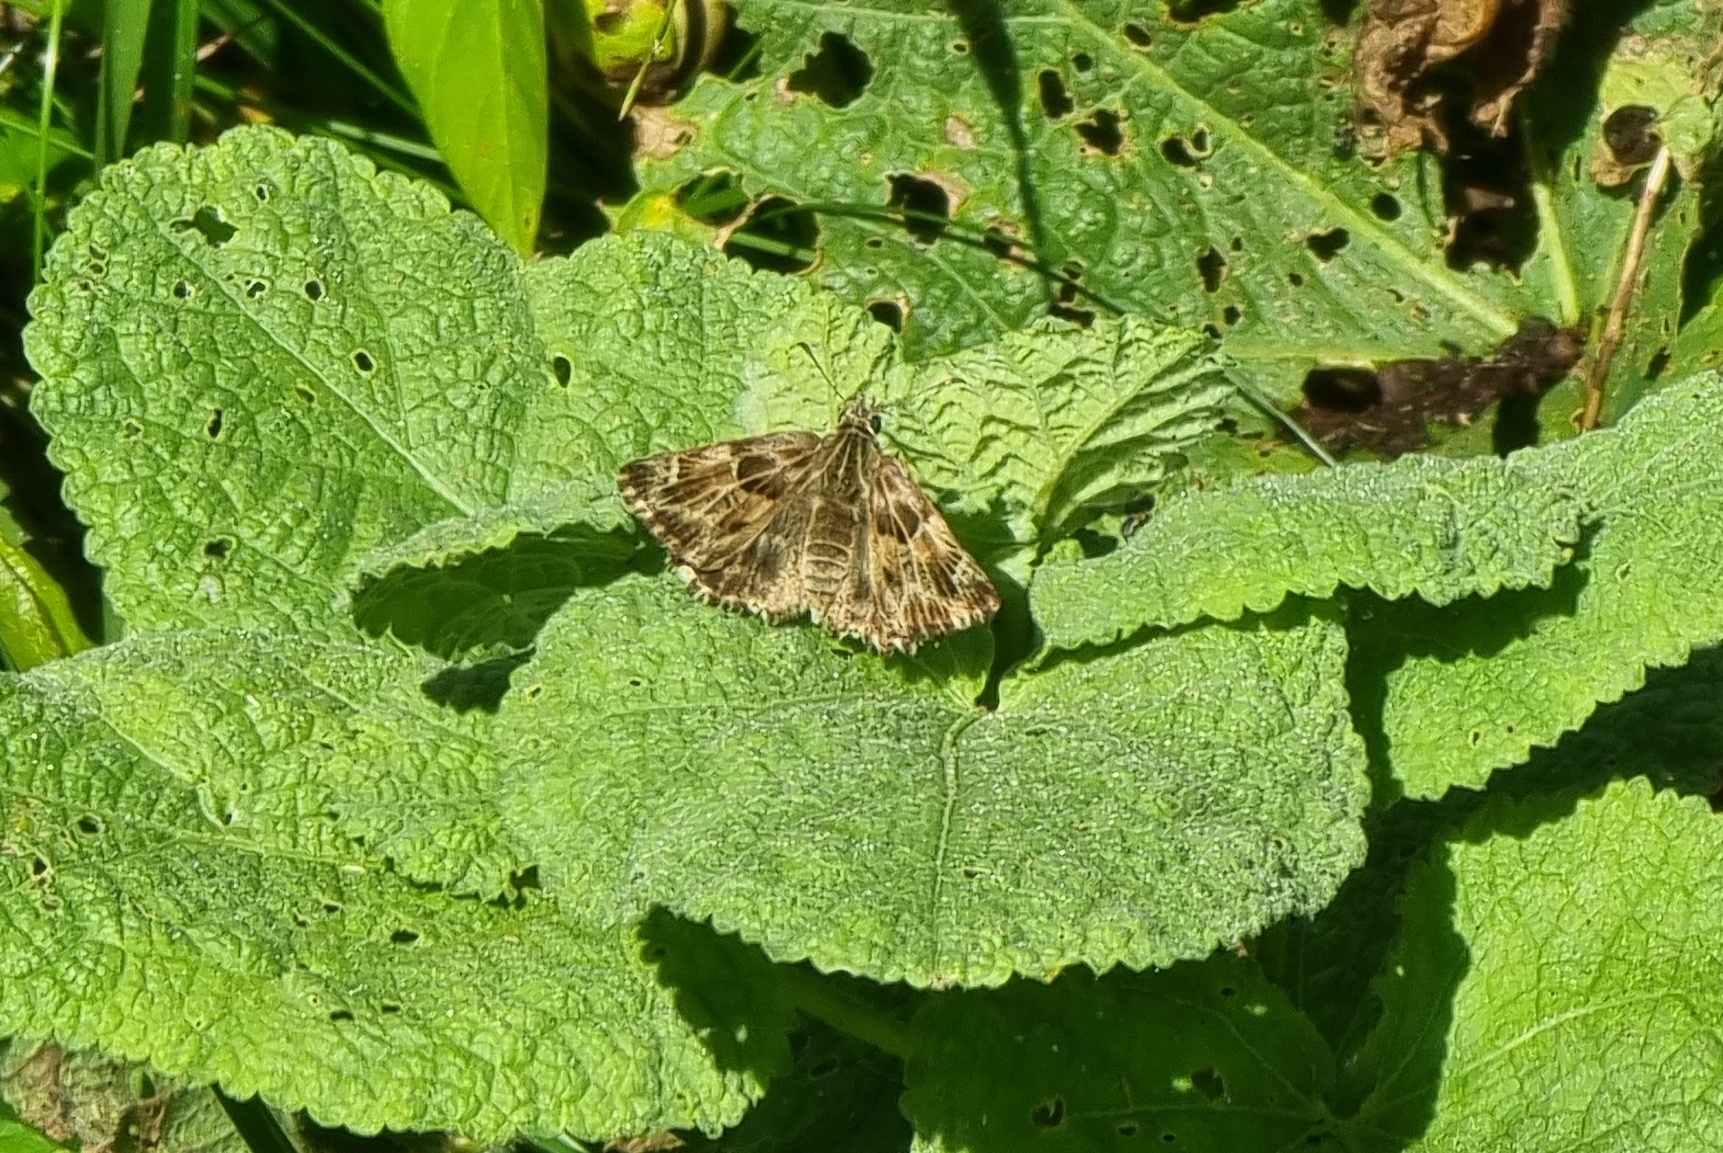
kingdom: Animalia
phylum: Arthropoda
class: Insecta
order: Lepidoptera
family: Hesperiidae
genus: Carcharodus
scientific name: Carcharodus alceae
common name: Mallow skipper
